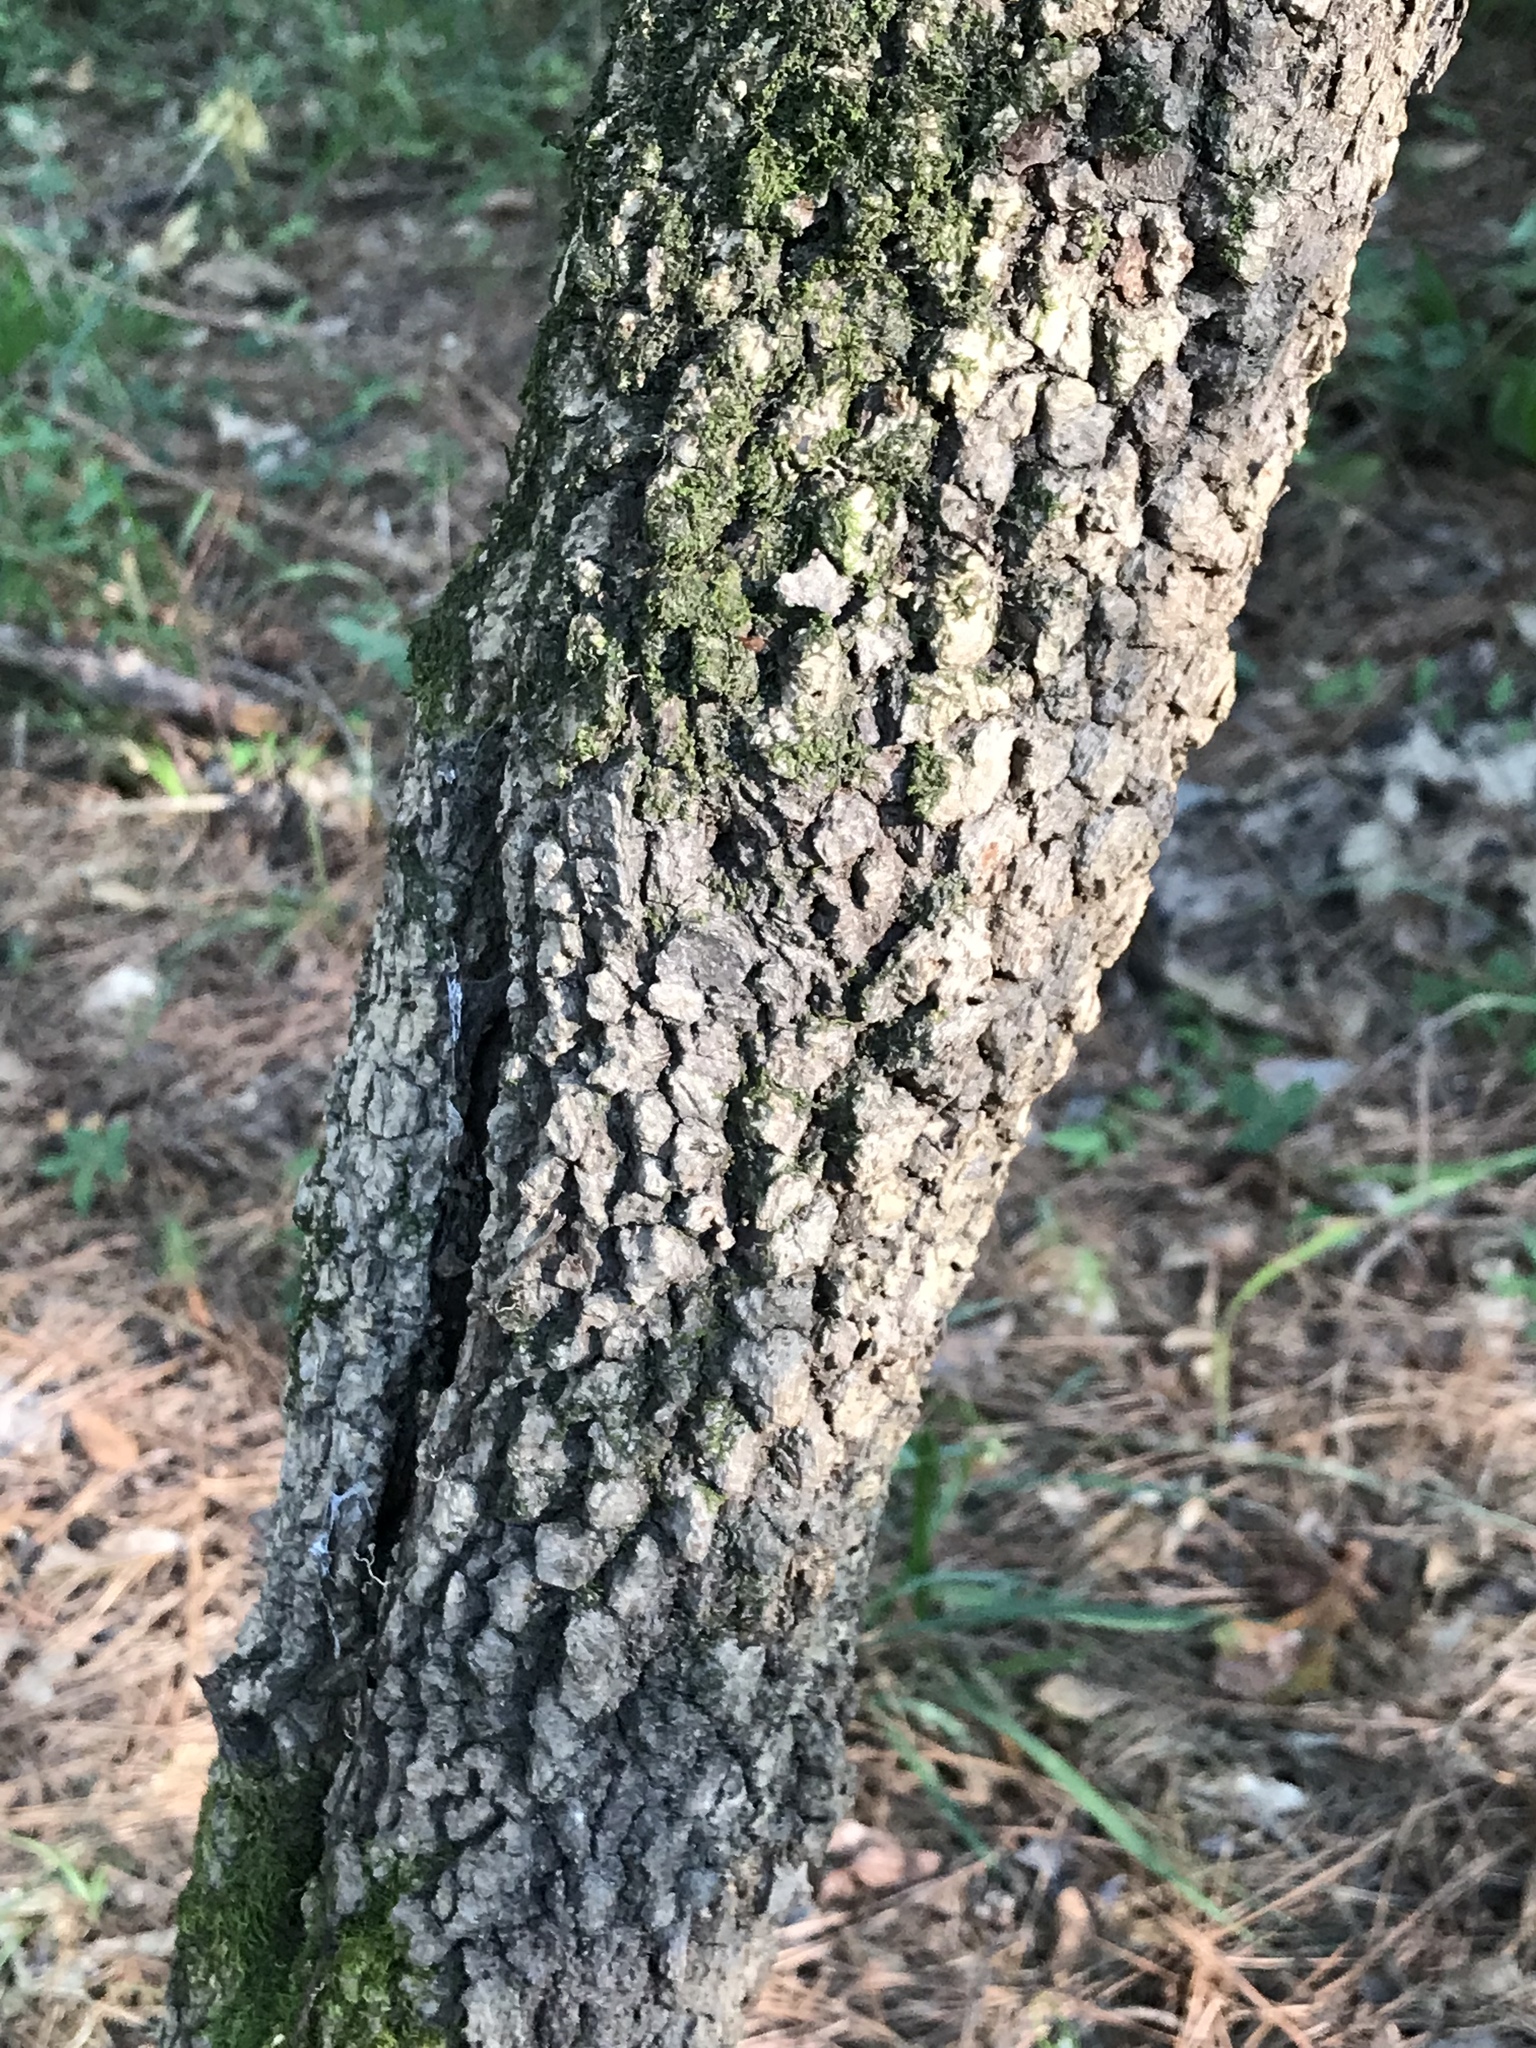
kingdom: Plantae
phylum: Tracheophyta
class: Magnoliopsida
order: Dipsacales
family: Viburnaceae
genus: Viburnum
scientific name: Viburnum rufidulum
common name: Blue haw
